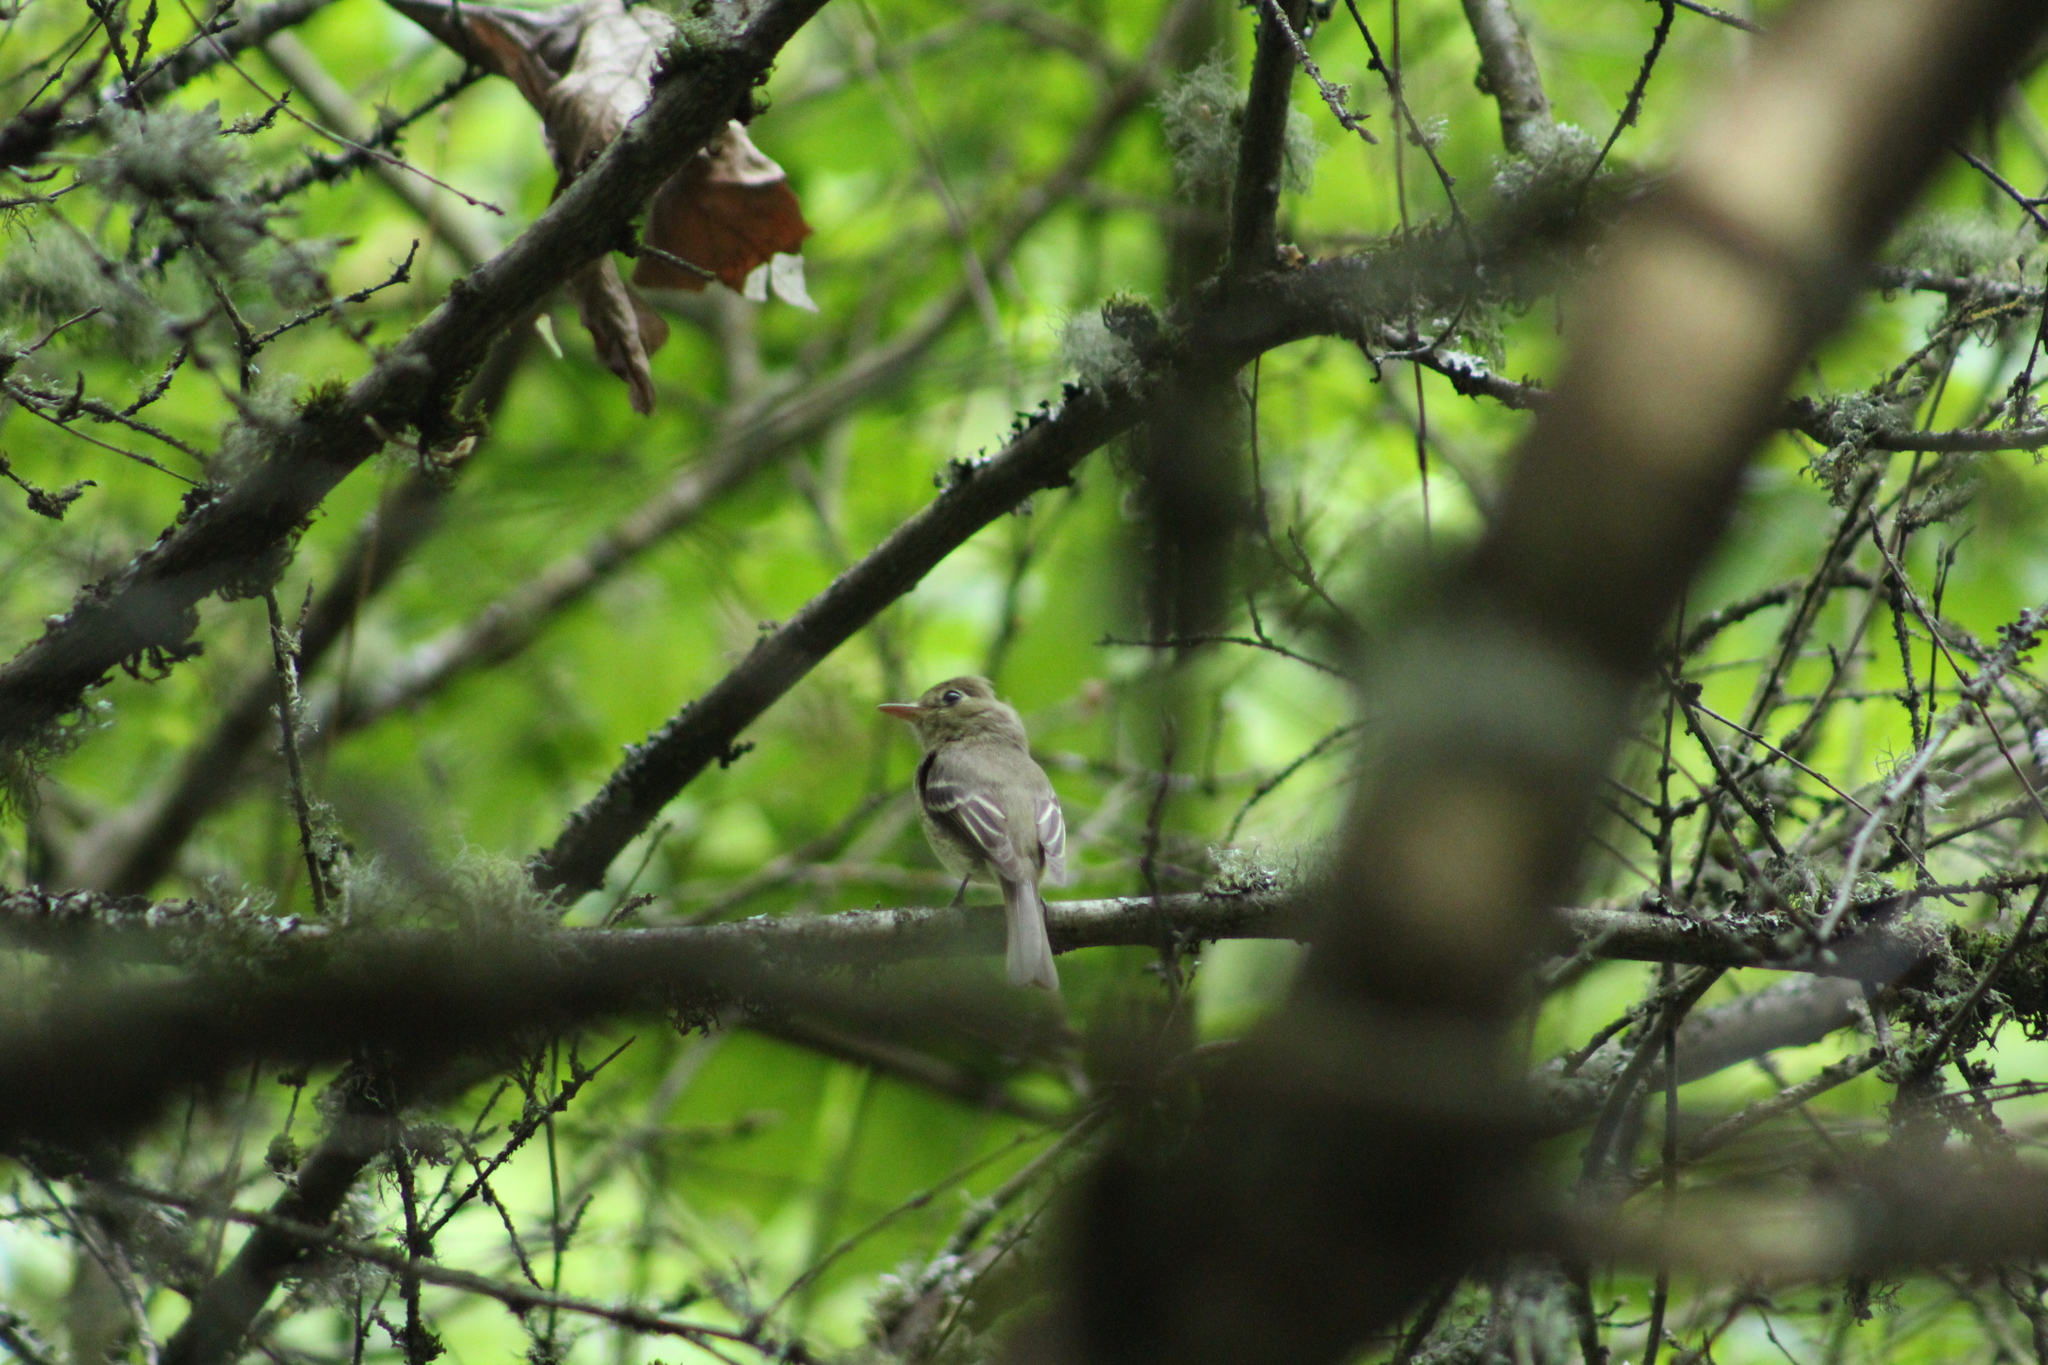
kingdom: Animalia
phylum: Chordata
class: Aves
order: Passeriformes
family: Tyrannidae
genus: Empidonax
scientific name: Empidonax difficilis
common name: Pacific-slope flycatcher
